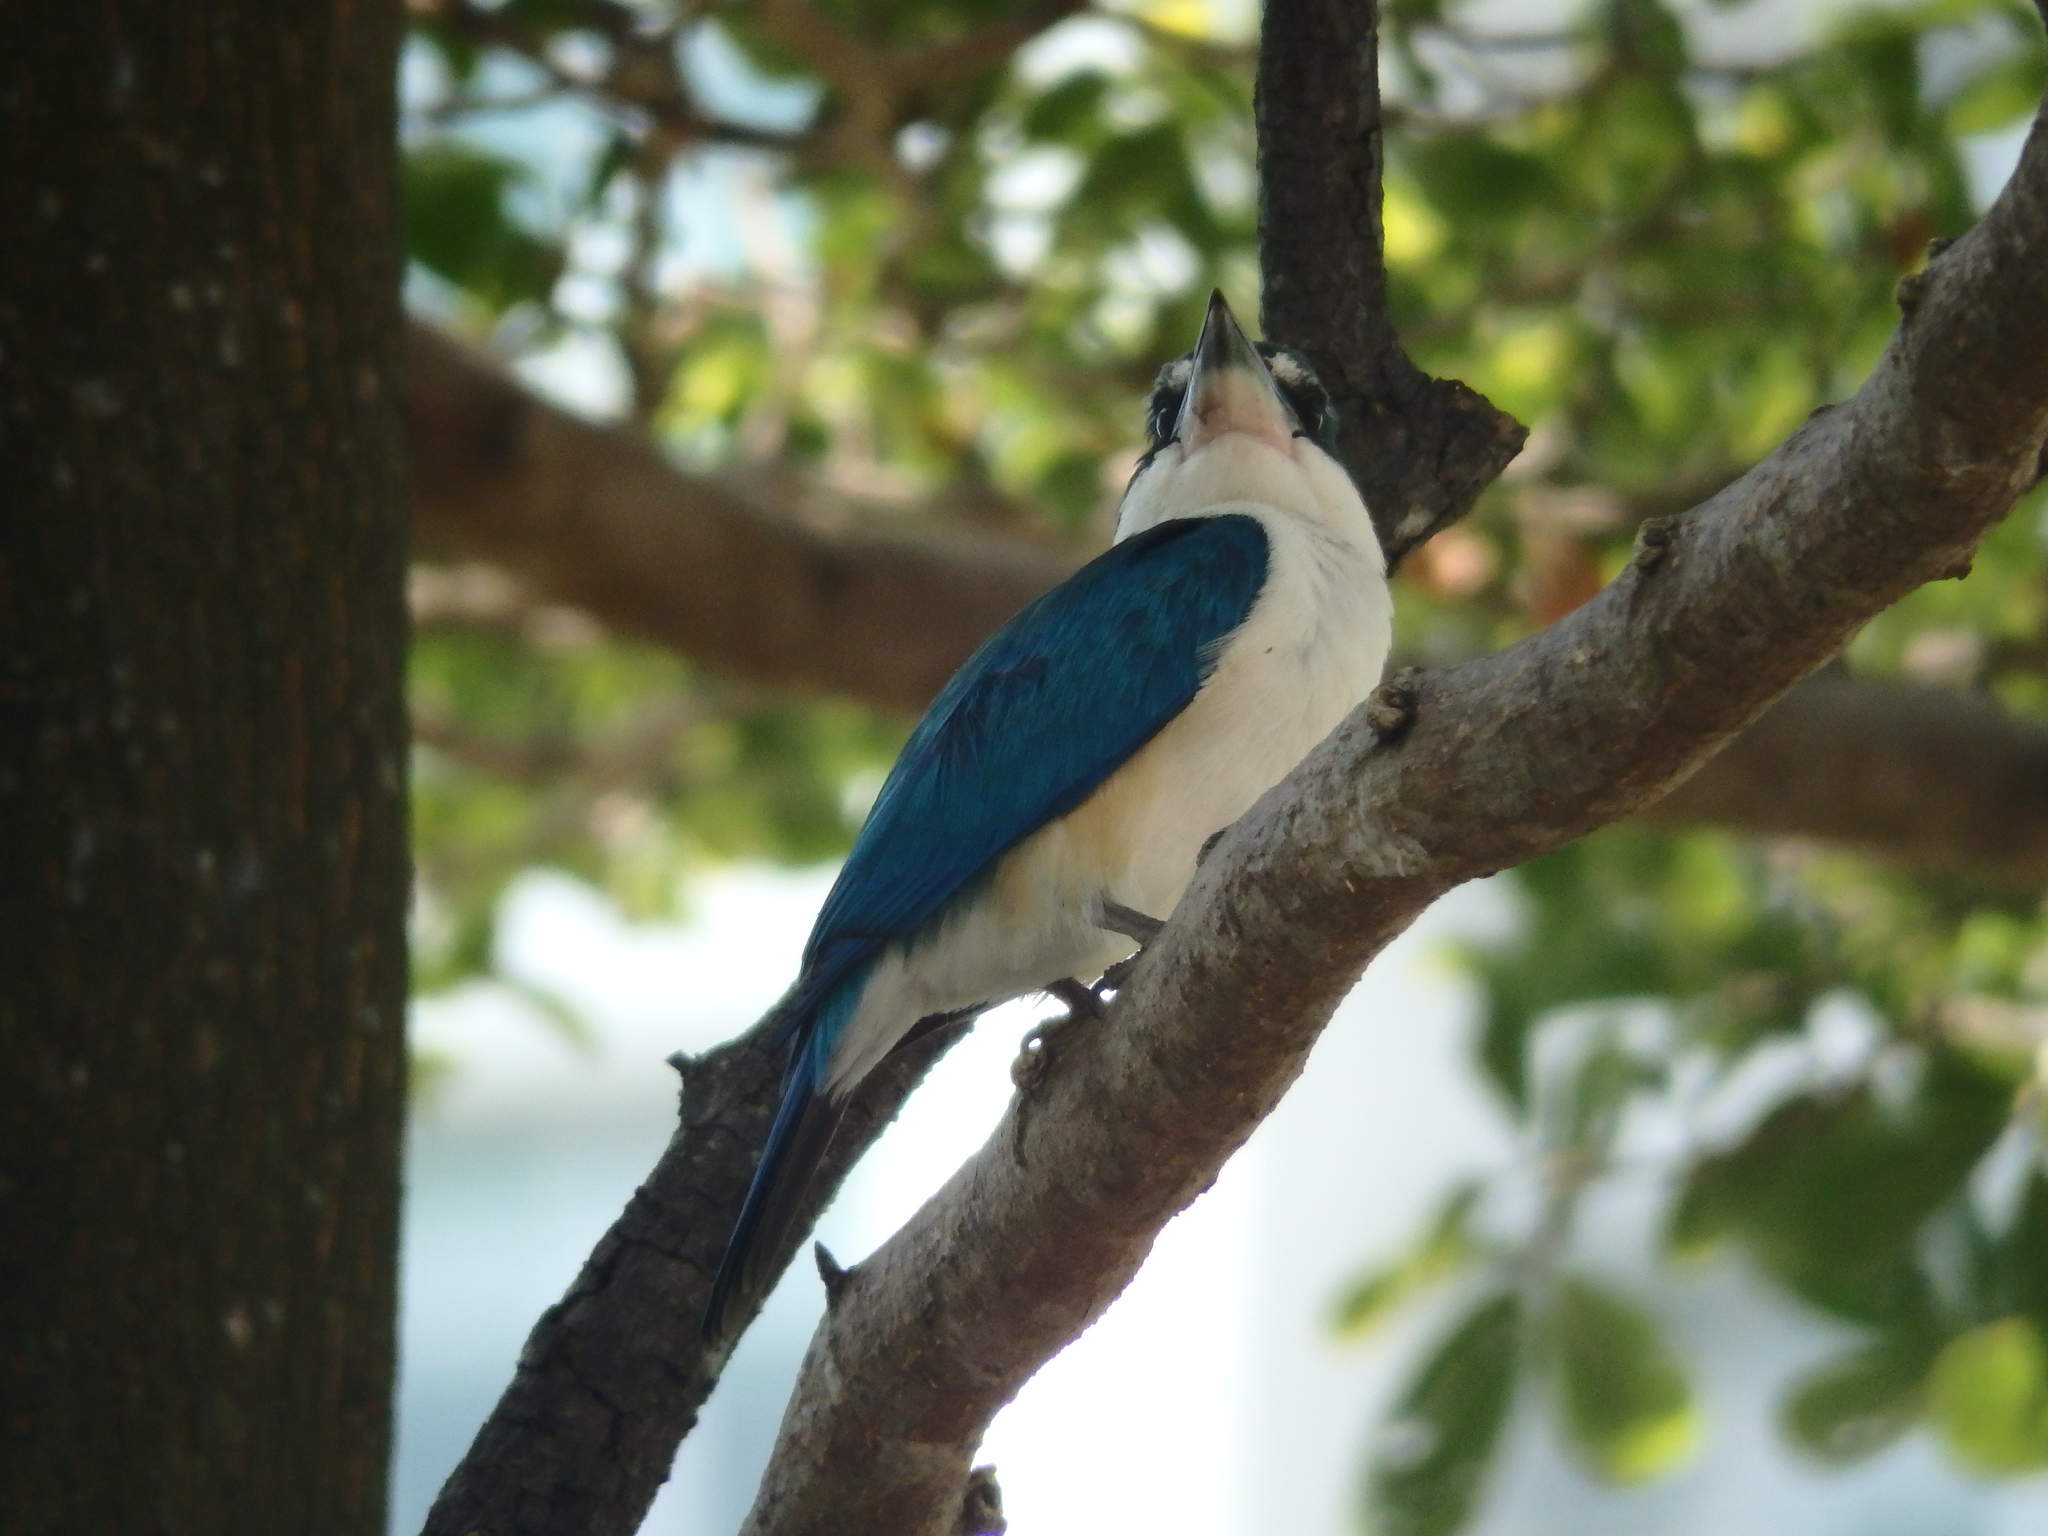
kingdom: Animalia
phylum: Chordata
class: Aves
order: Coraciiformes
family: Alcedinidae
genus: Todiramphus
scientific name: Todiramphus chloris
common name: Collared kingfisher
